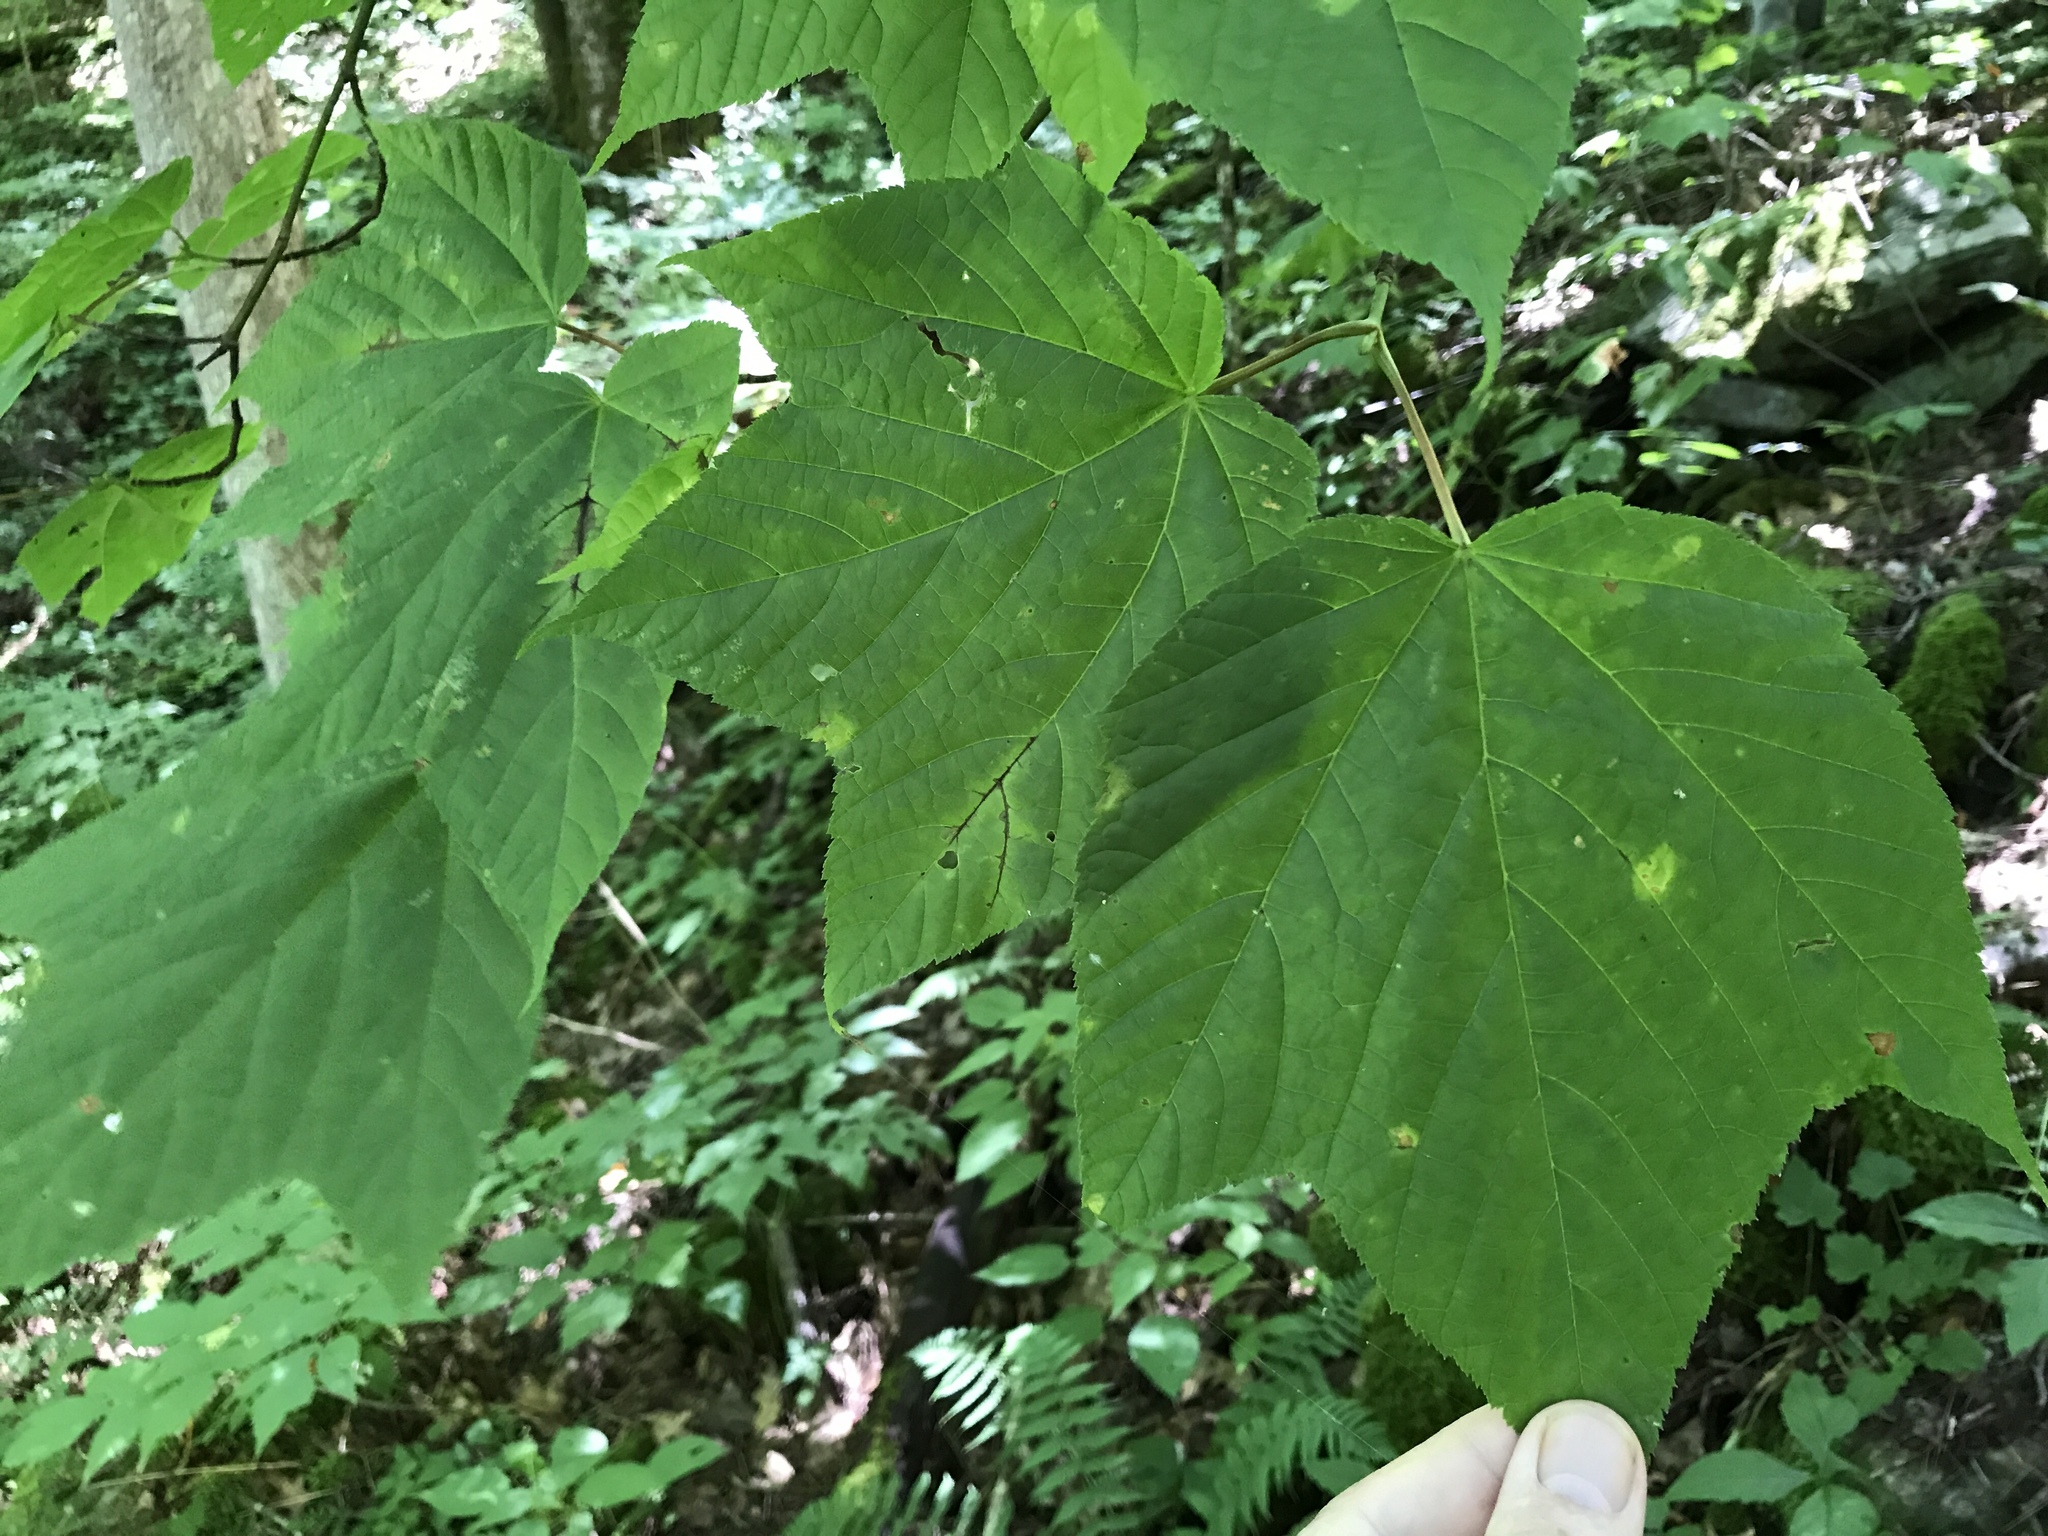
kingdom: Plantae
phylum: Tracheophyta
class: Magnoliopsida
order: Sapindales
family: Sapindaceae
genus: Acer
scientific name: Acer pensylvanicum
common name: Moosewood
